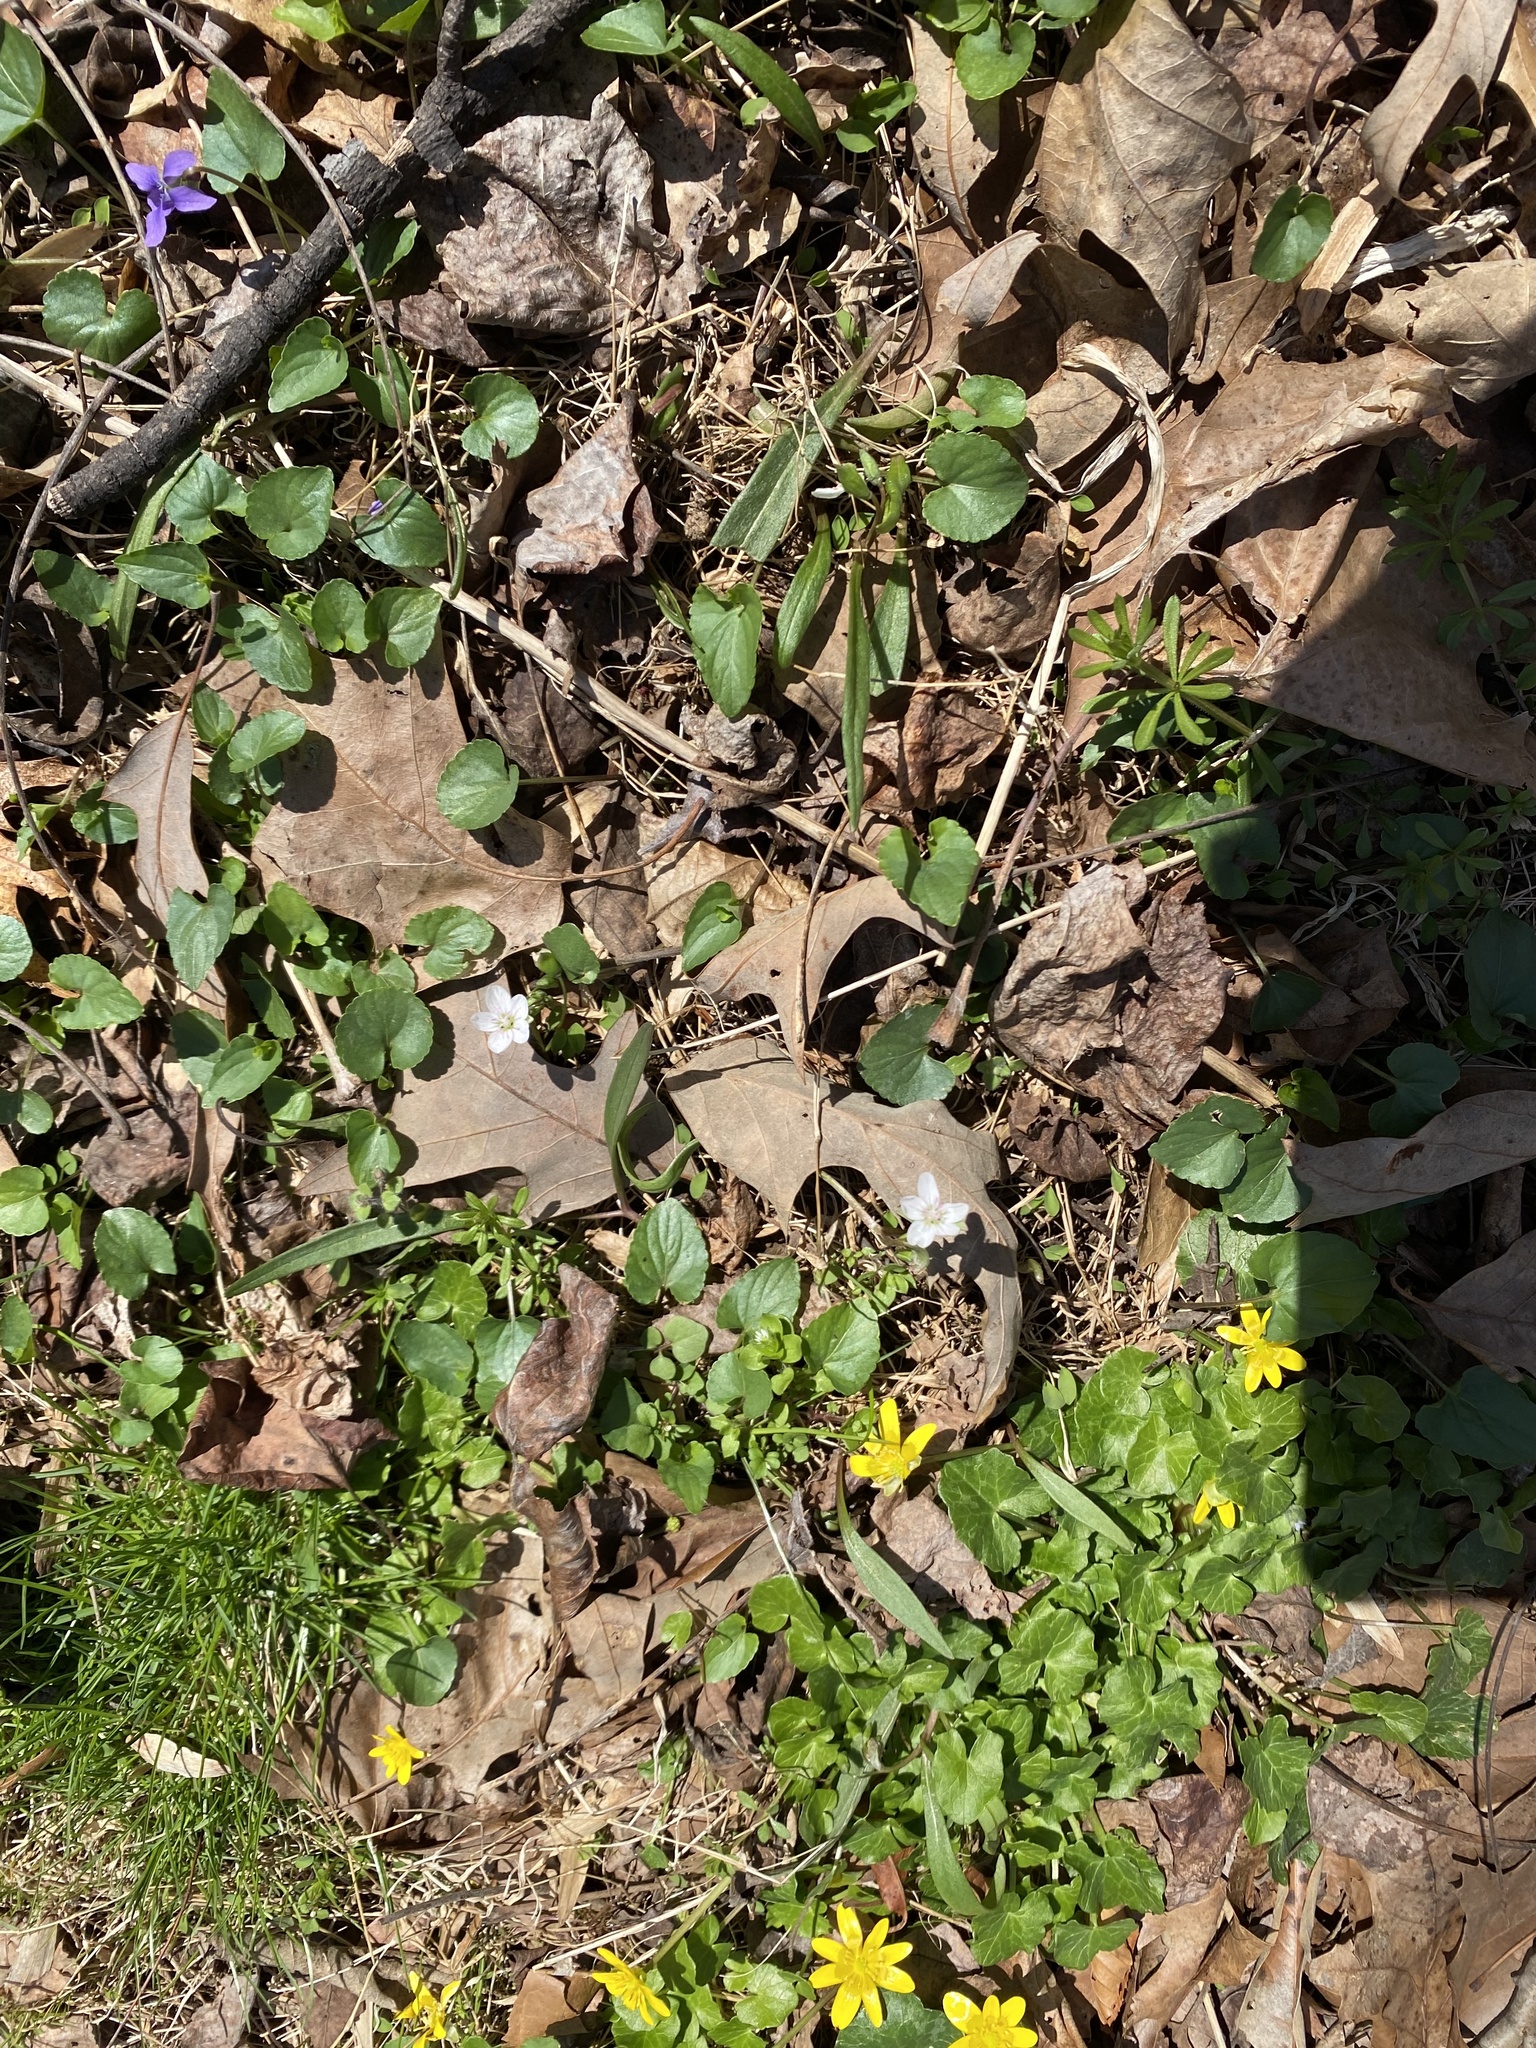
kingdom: Plantae
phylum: Tracheophyta
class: Magnoliopsida
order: Caryophyllales
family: Montiaceae
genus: Claytonia
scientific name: Claytonia virginica
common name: Virginia springbeauty
